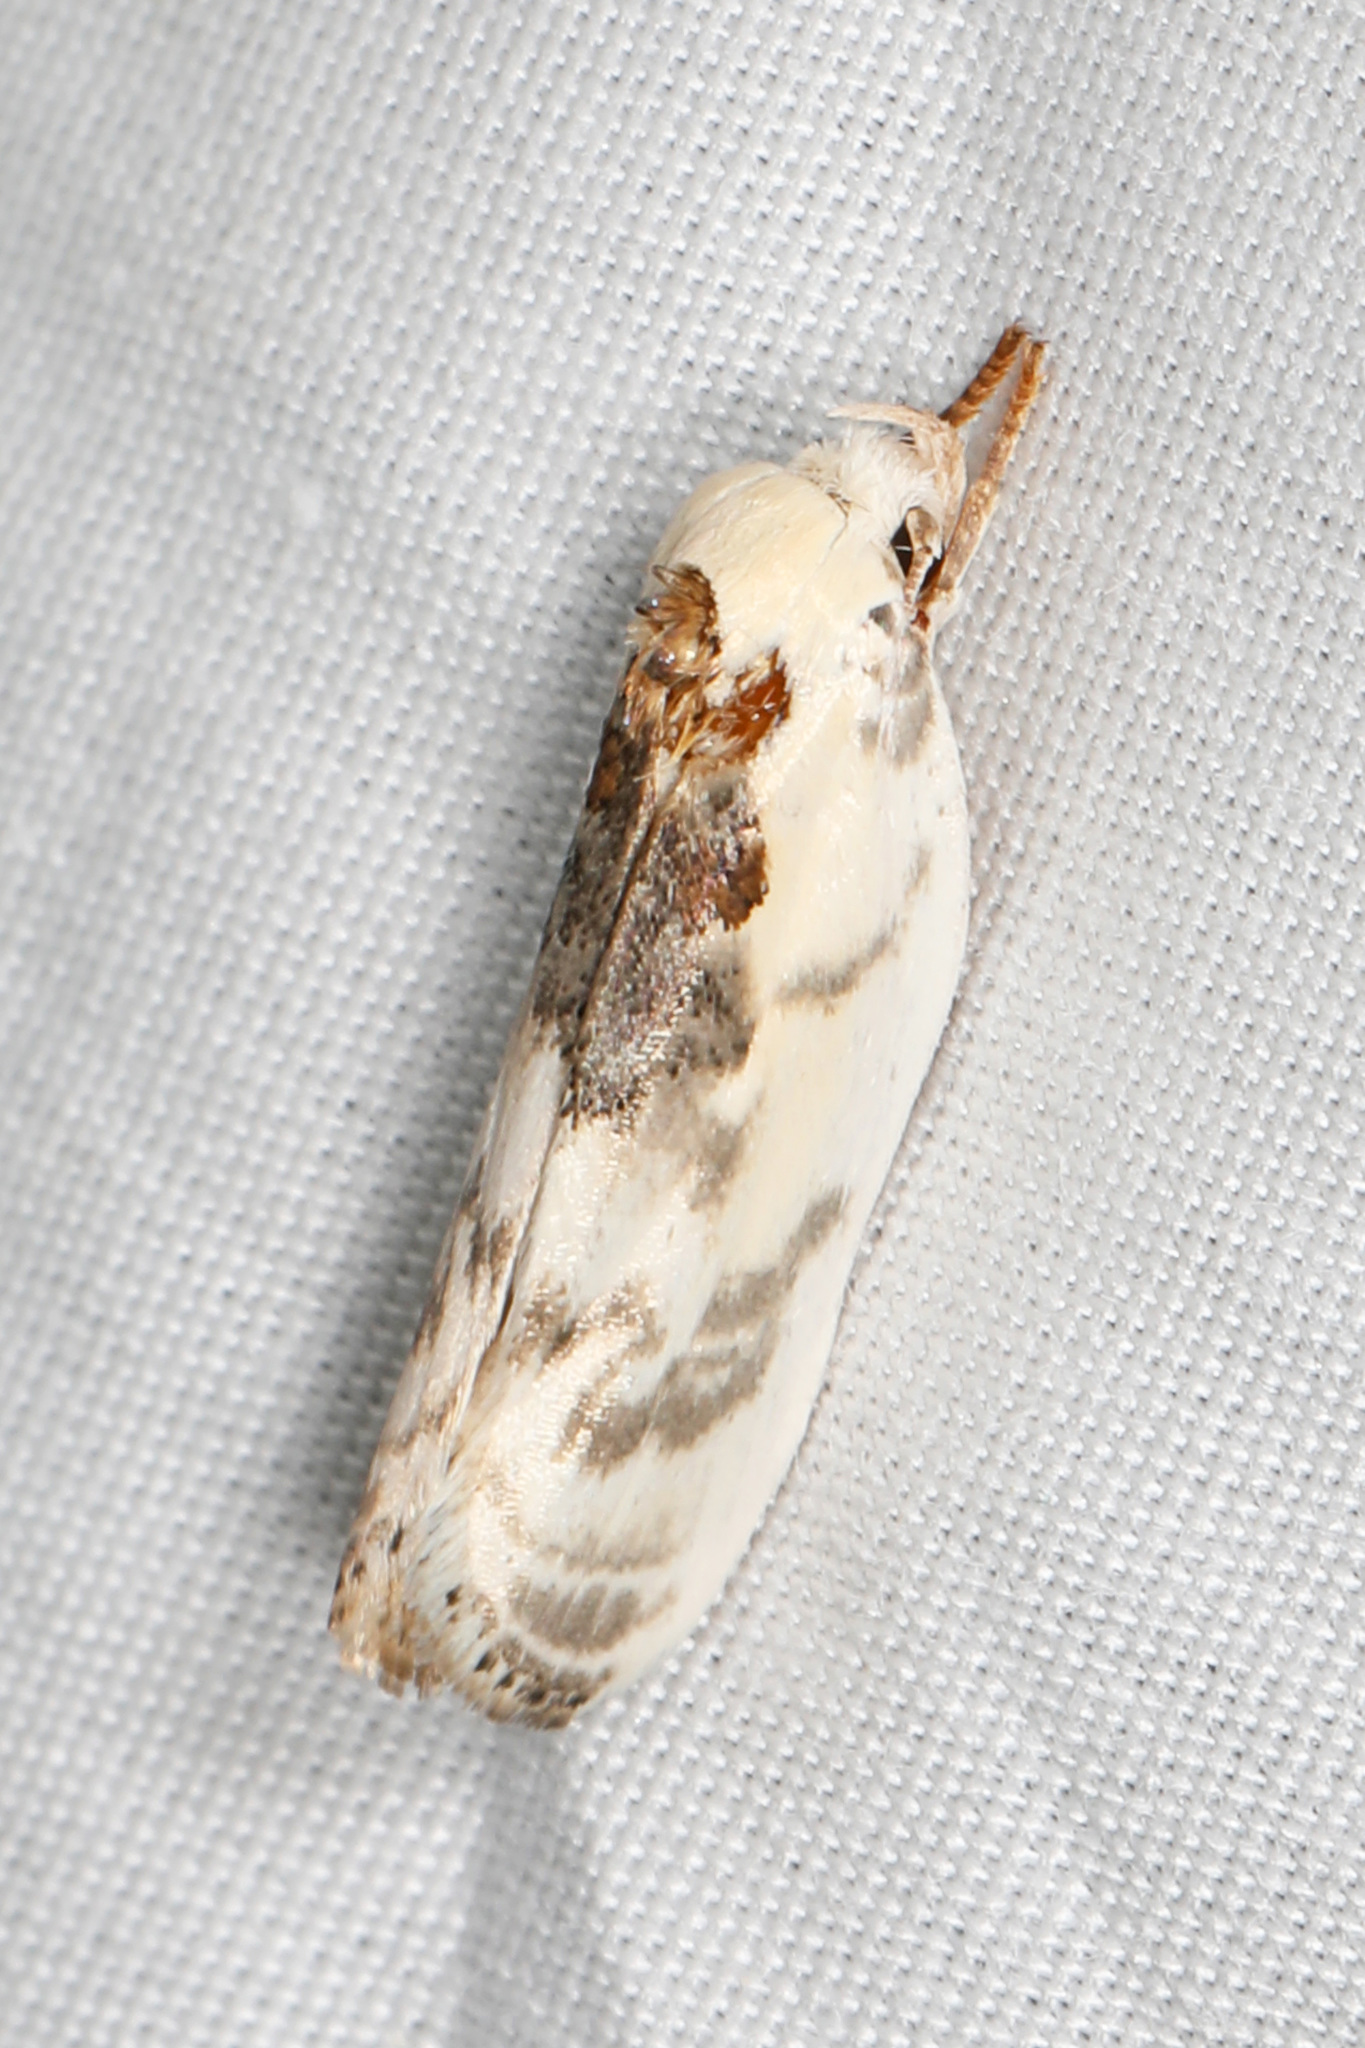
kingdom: Animalia
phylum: Arthropoda
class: Insecta
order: Lepidoptera
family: Depressariidae
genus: Antaeotricha
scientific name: Antaeotricha leucillana
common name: Pale gray bird-dropping moth
